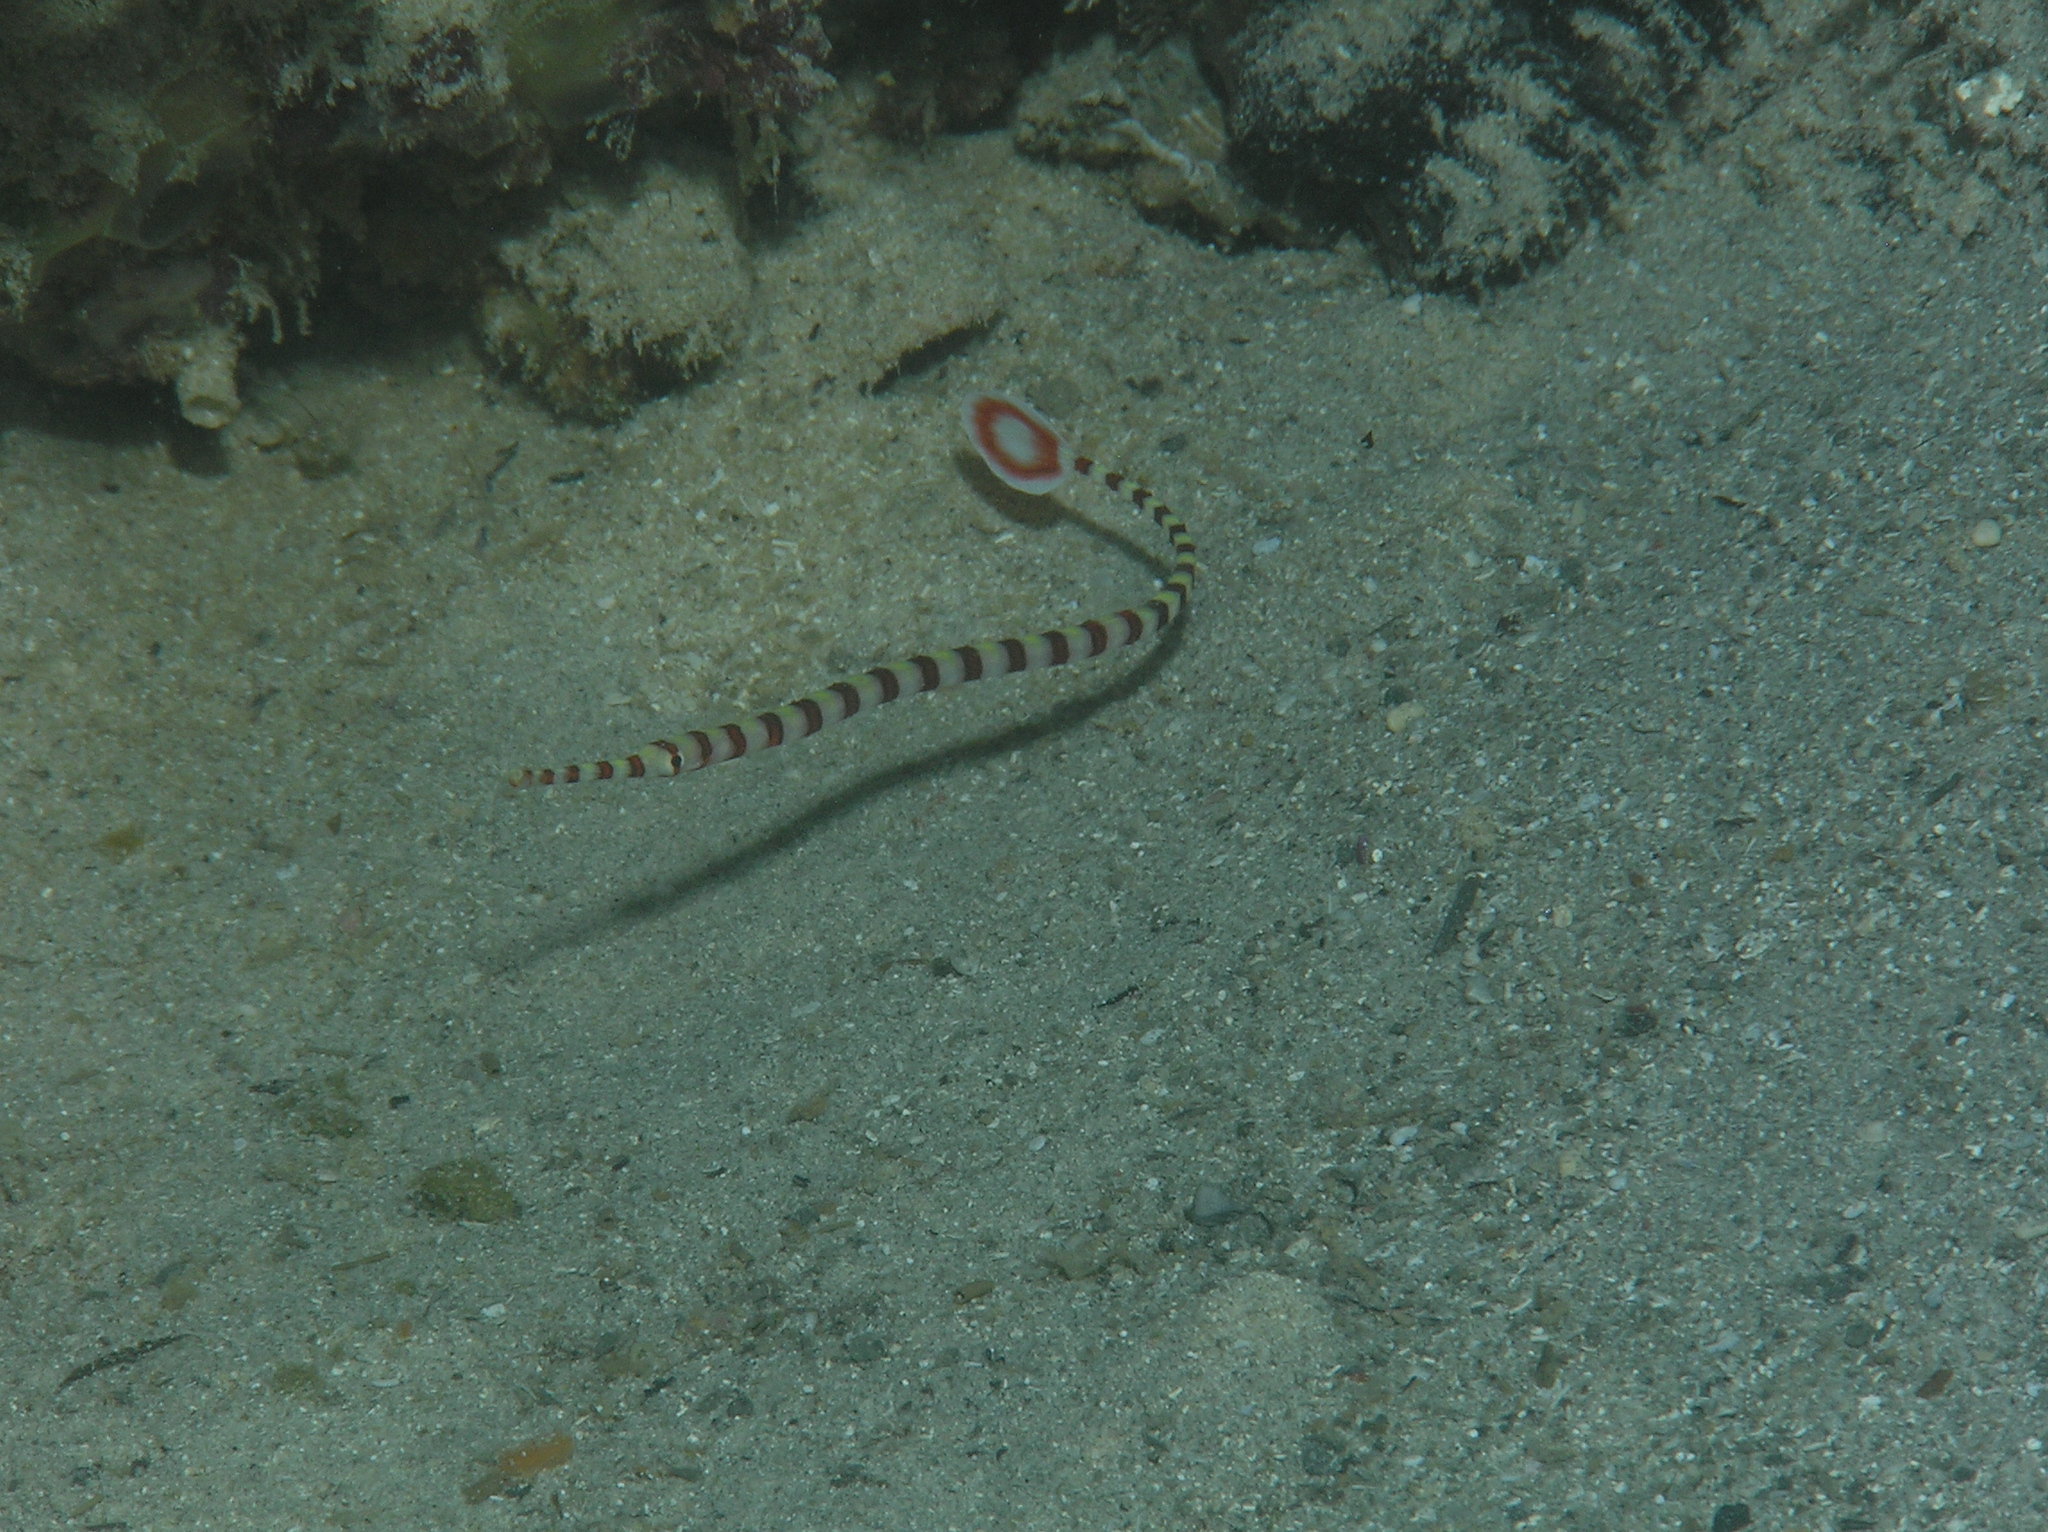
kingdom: Animalia
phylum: Chordata
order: Syngnathiformes
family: Syngnathidae
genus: Dunckerocampus
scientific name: Dunckerocampus dactyliophorus
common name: Banded pipefish
